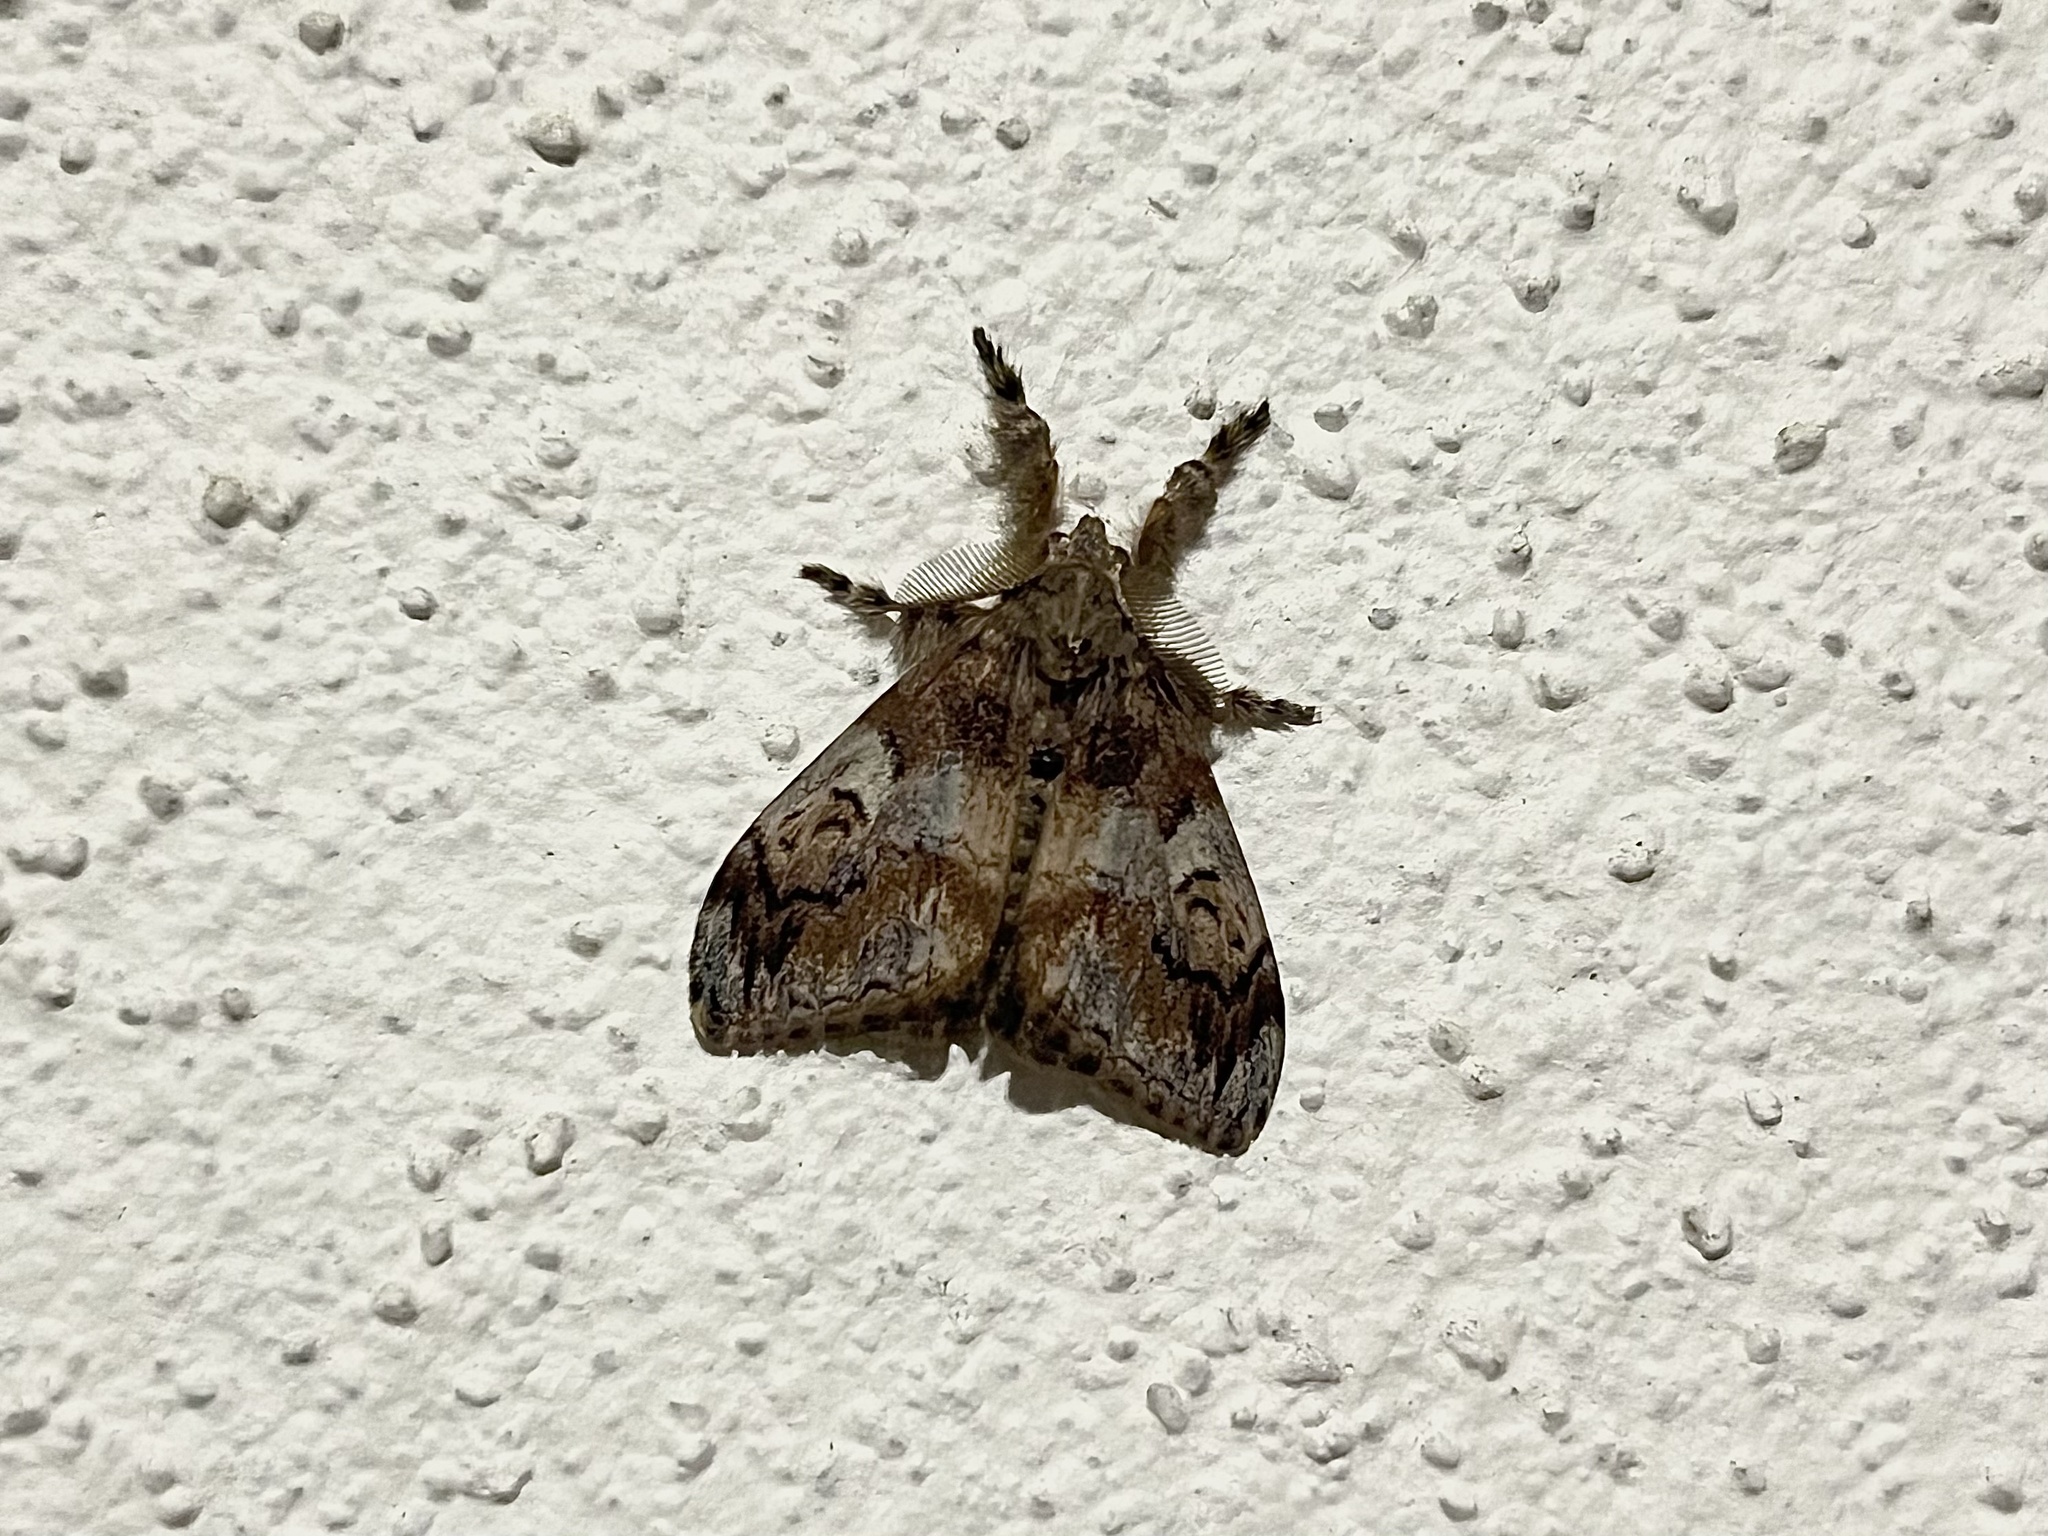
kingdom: Animalia
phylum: Arthropoda
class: Insecta
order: Lepidoptera
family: Erebidae
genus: Orgyia
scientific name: Orgyia australis
